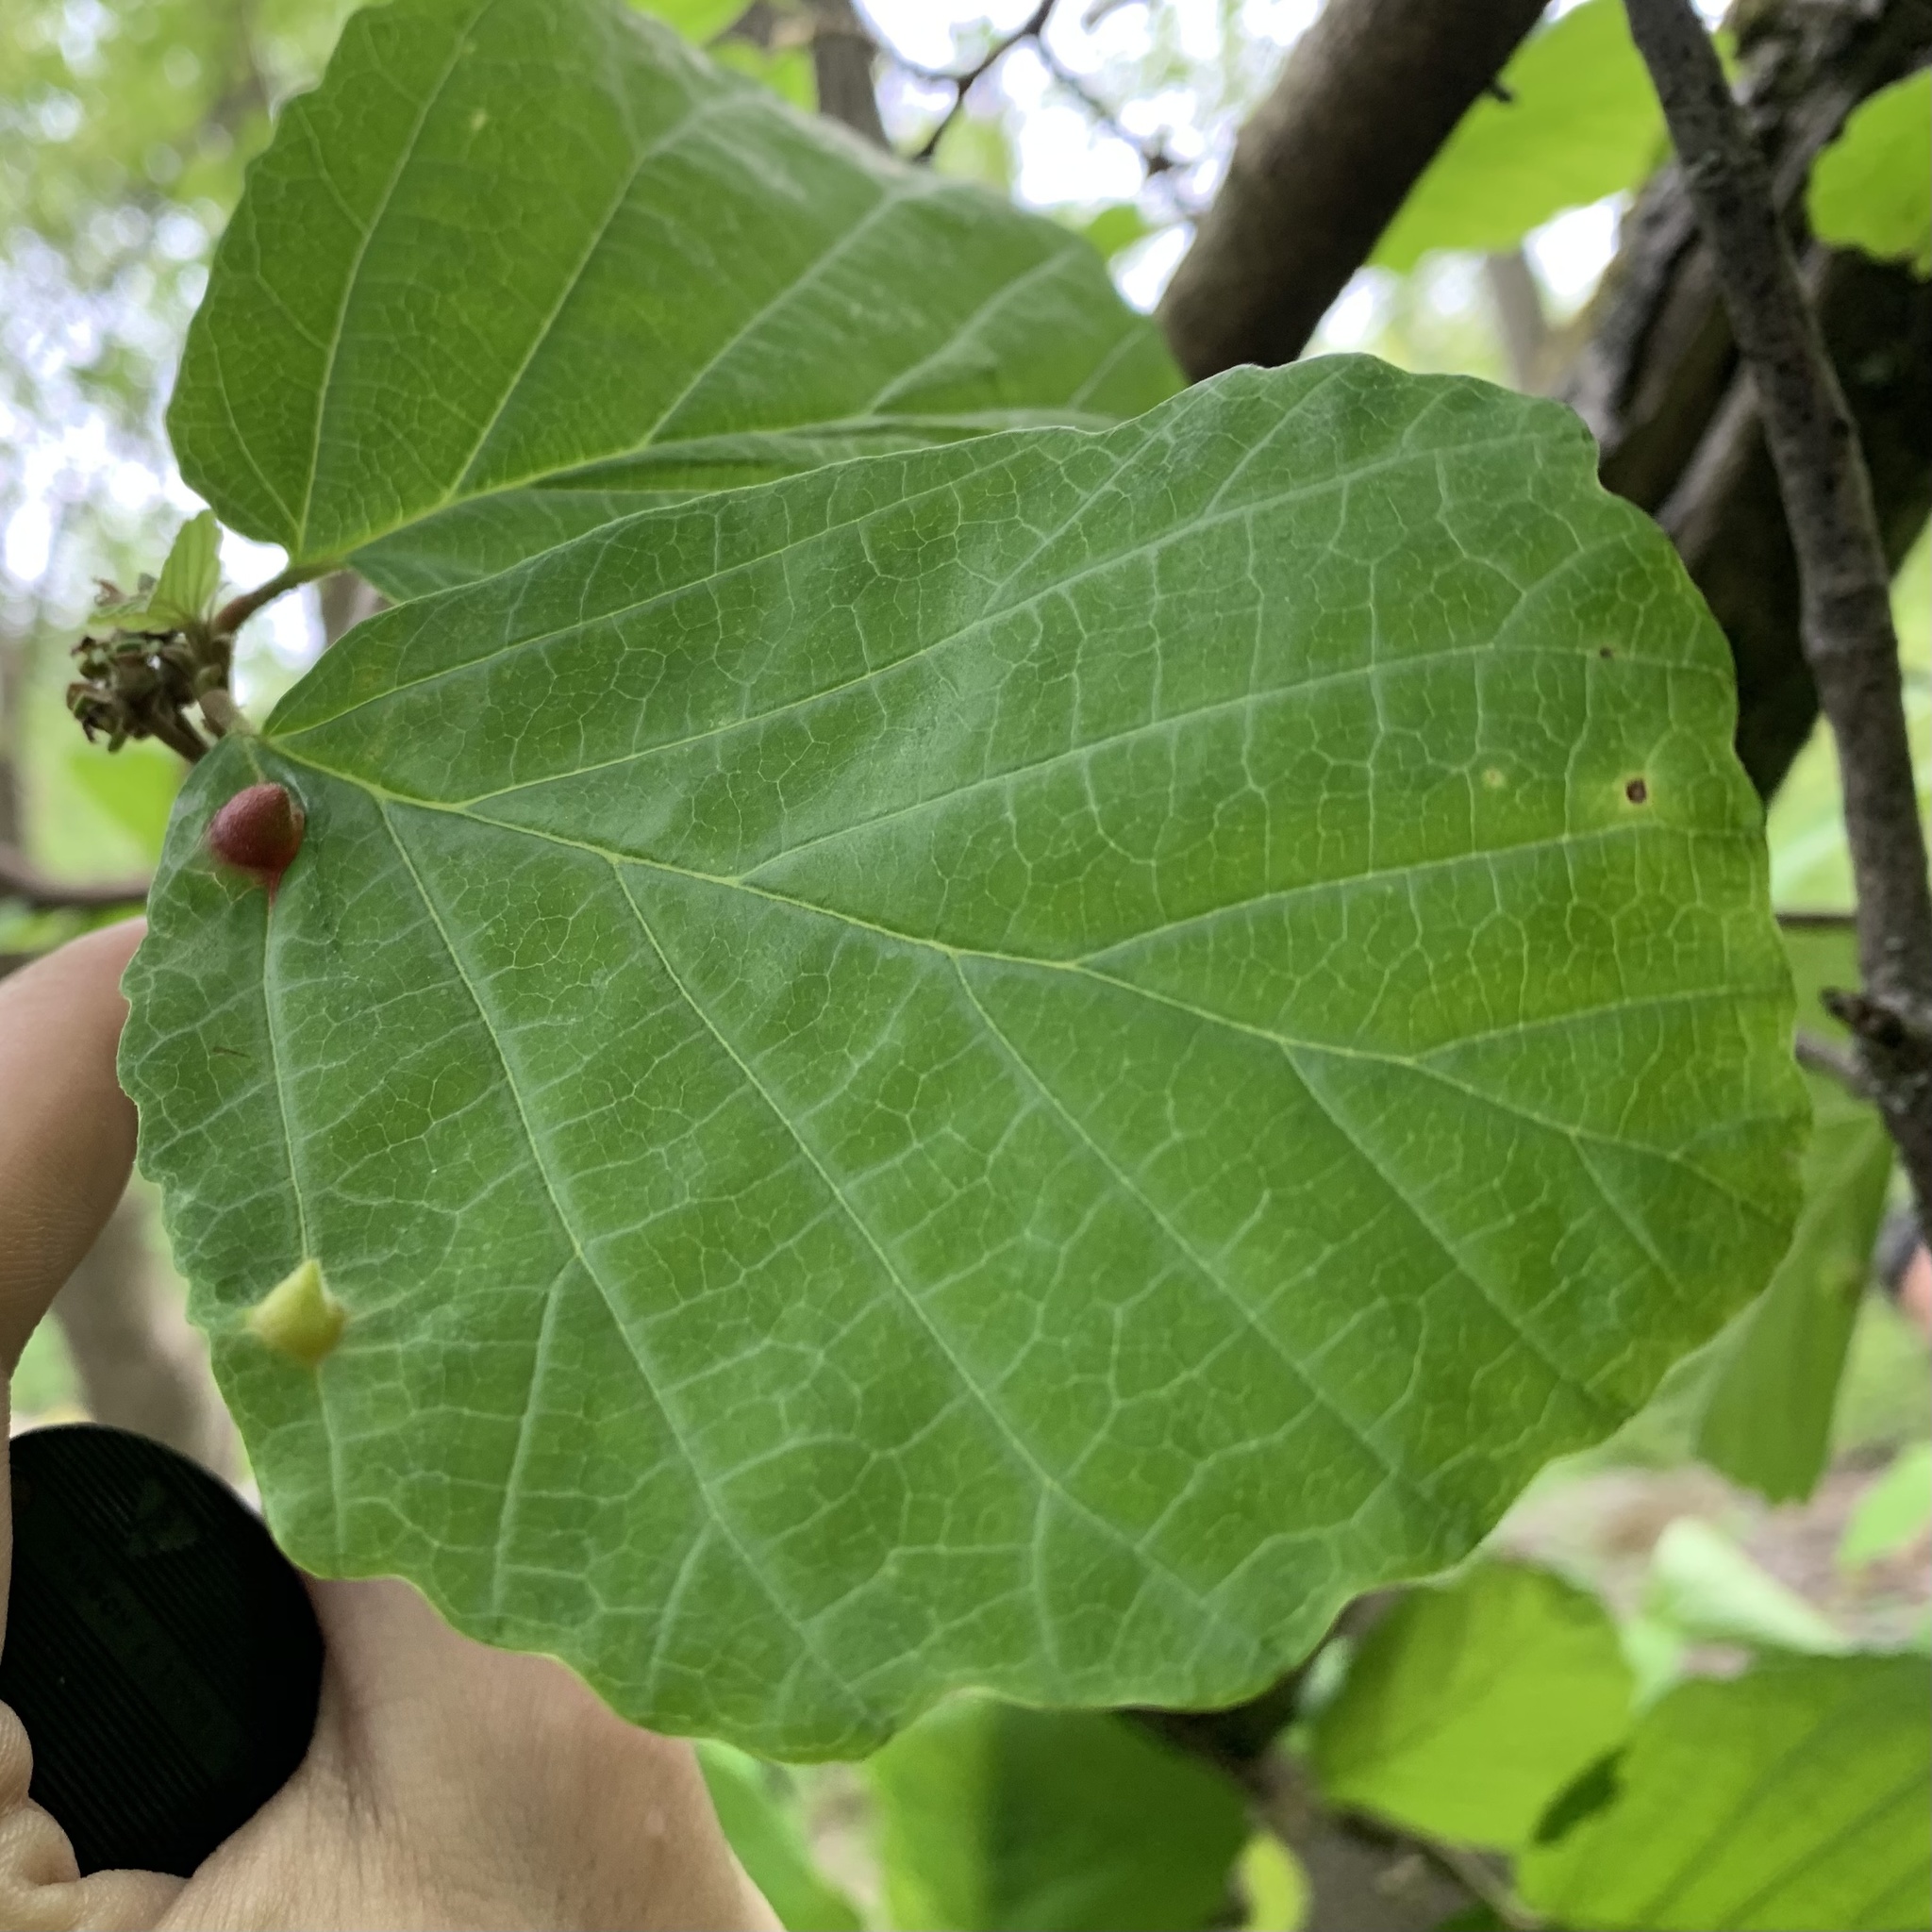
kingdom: Animalia
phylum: Arthropoda
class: Insecta
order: Hemiptera
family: Aphididae
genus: Hormaphis
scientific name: Hormaphis hamamelidis
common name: Witch-hazel cone gall aphid
